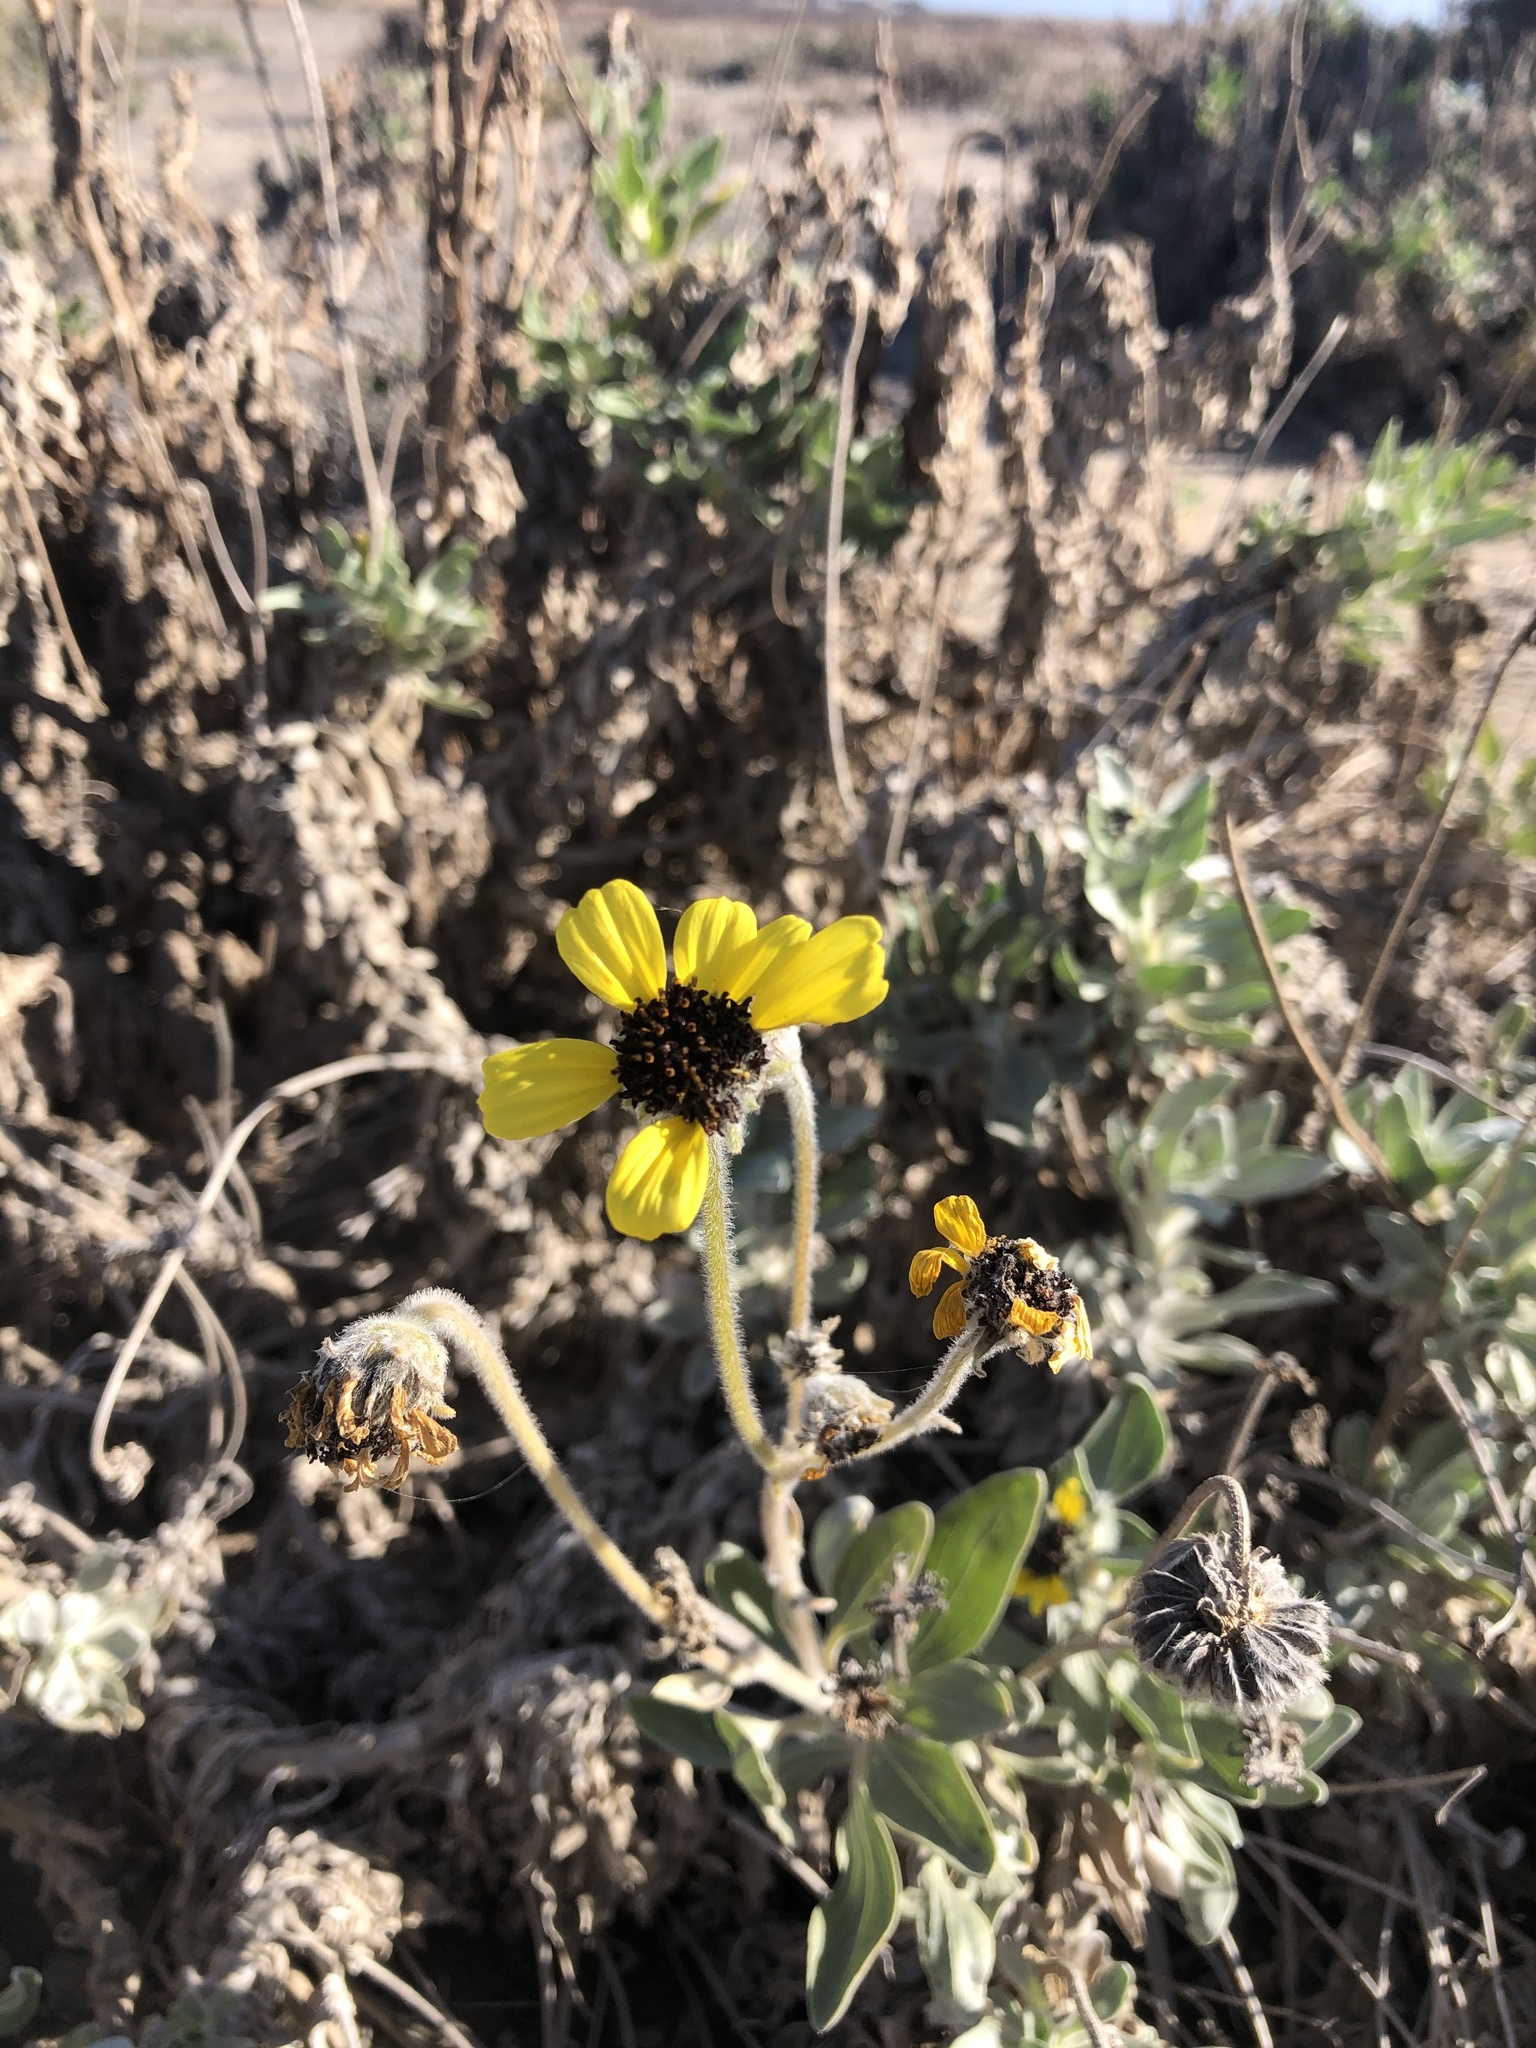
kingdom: Plantae
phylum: Tracheophyta
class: Magnoliopsida
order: Asterales
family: Asteraceae
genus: Encelia
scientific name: Encelia canescens
